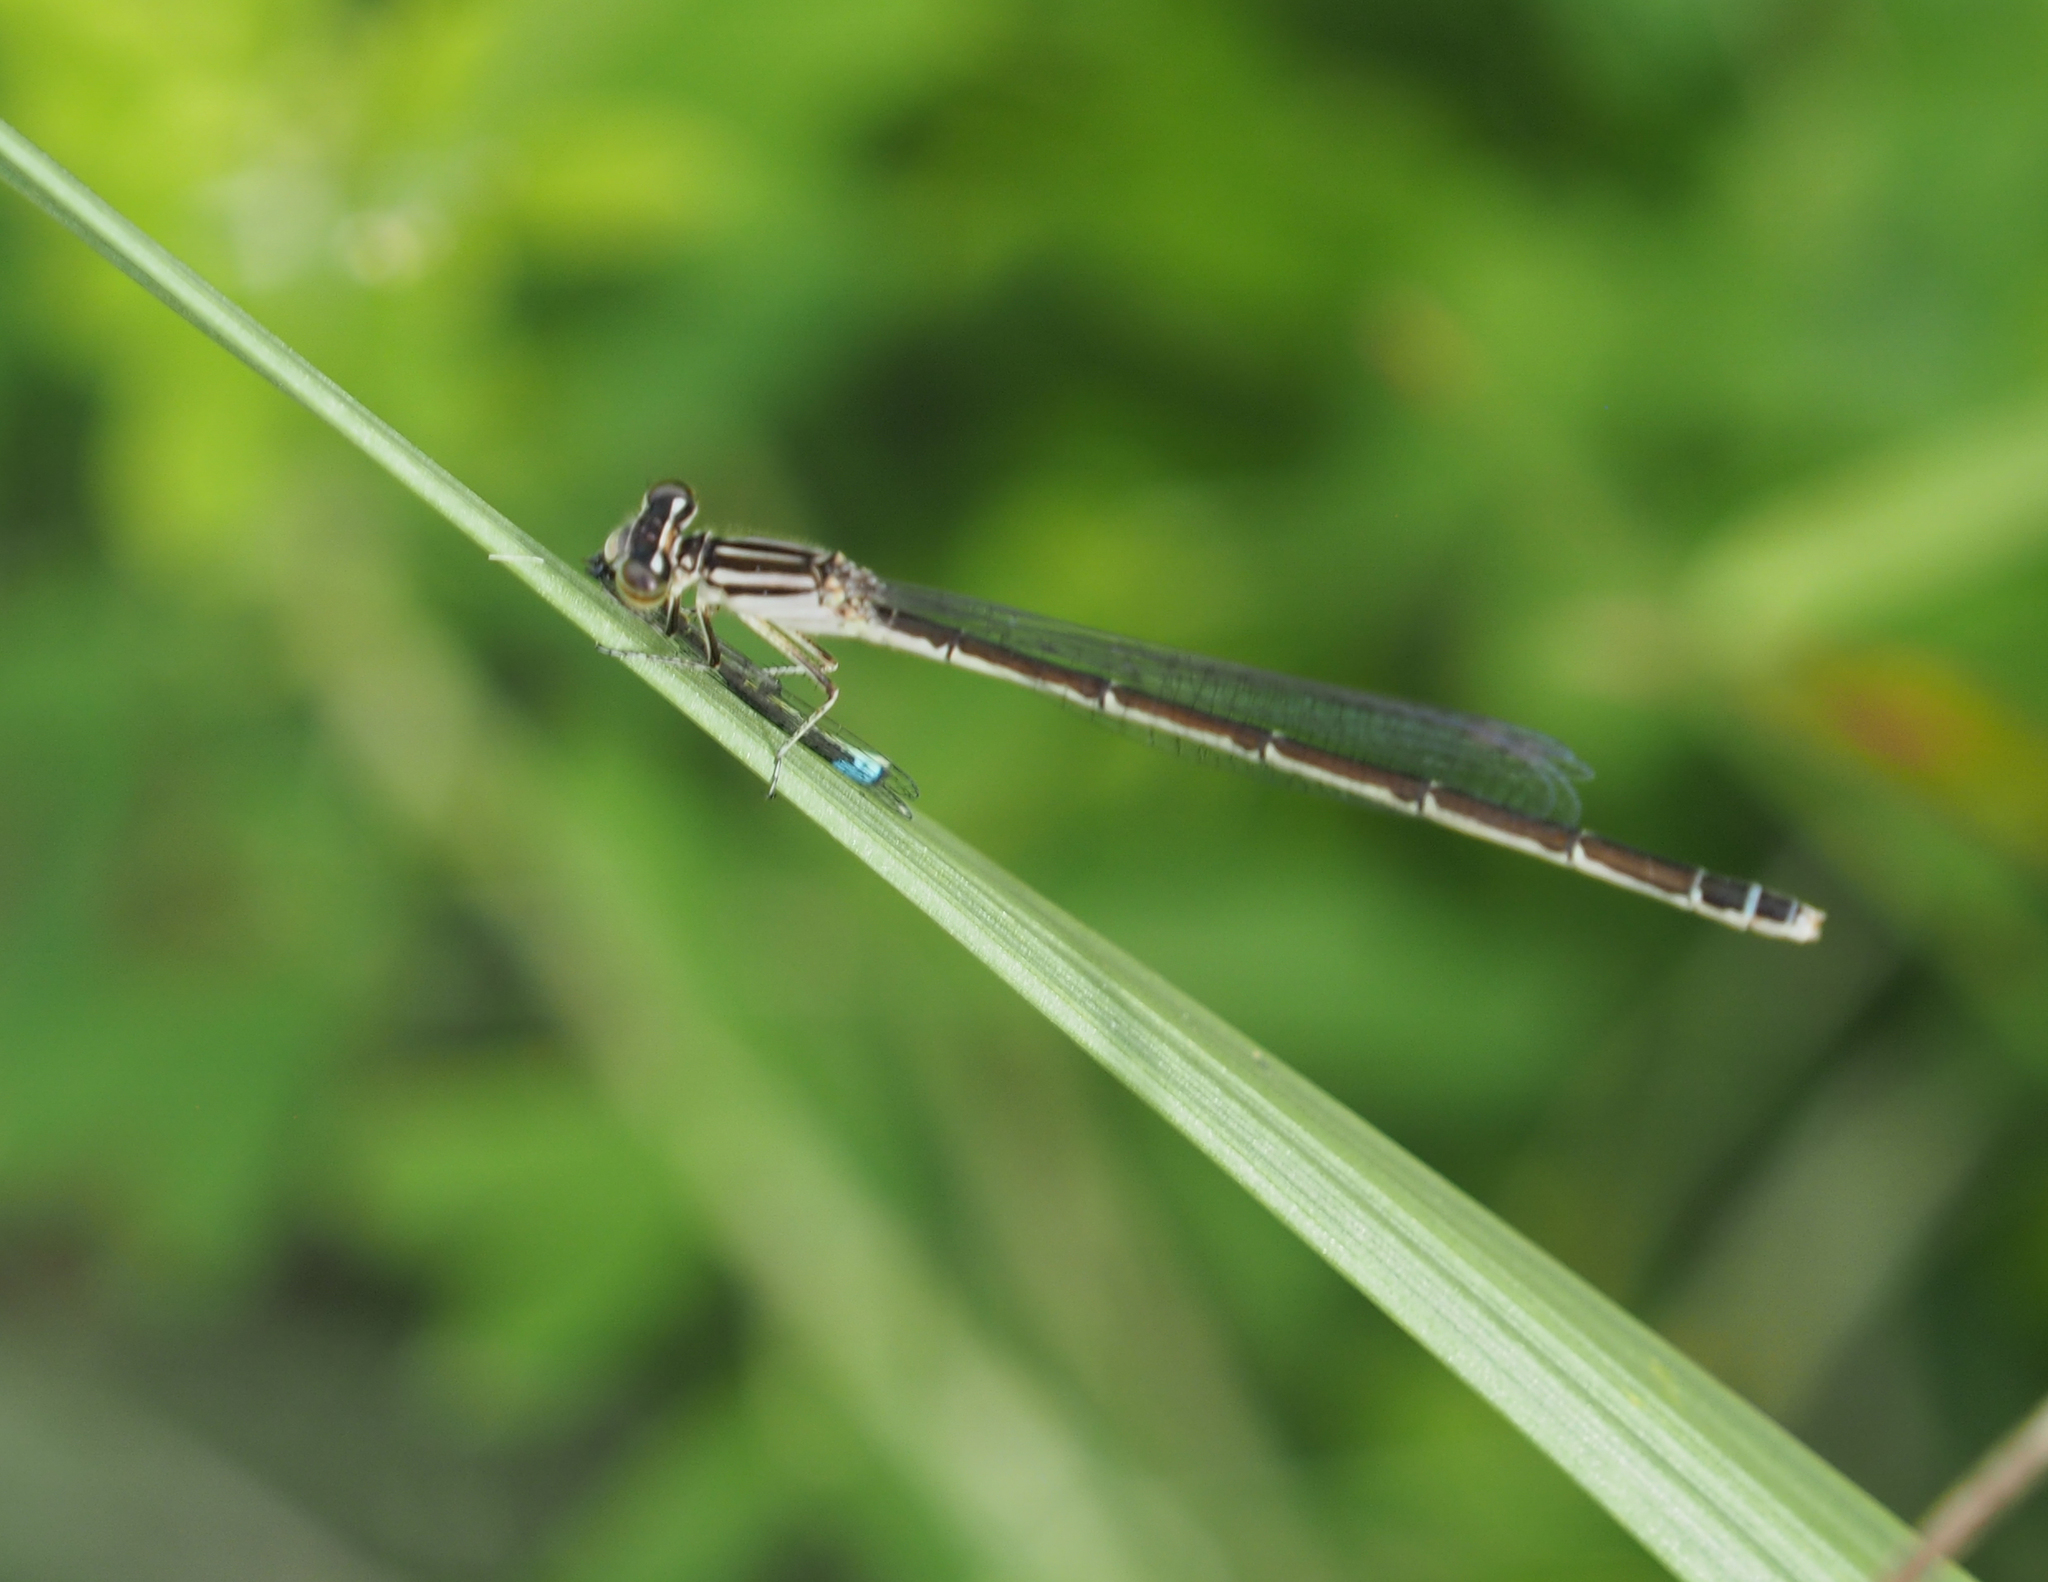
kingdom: Animalia
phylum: Arthropoda
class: Insecta
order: Odonata
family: Coenagrionidae
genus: Enallagma
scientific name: Enallagma durum
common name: Big bluet
